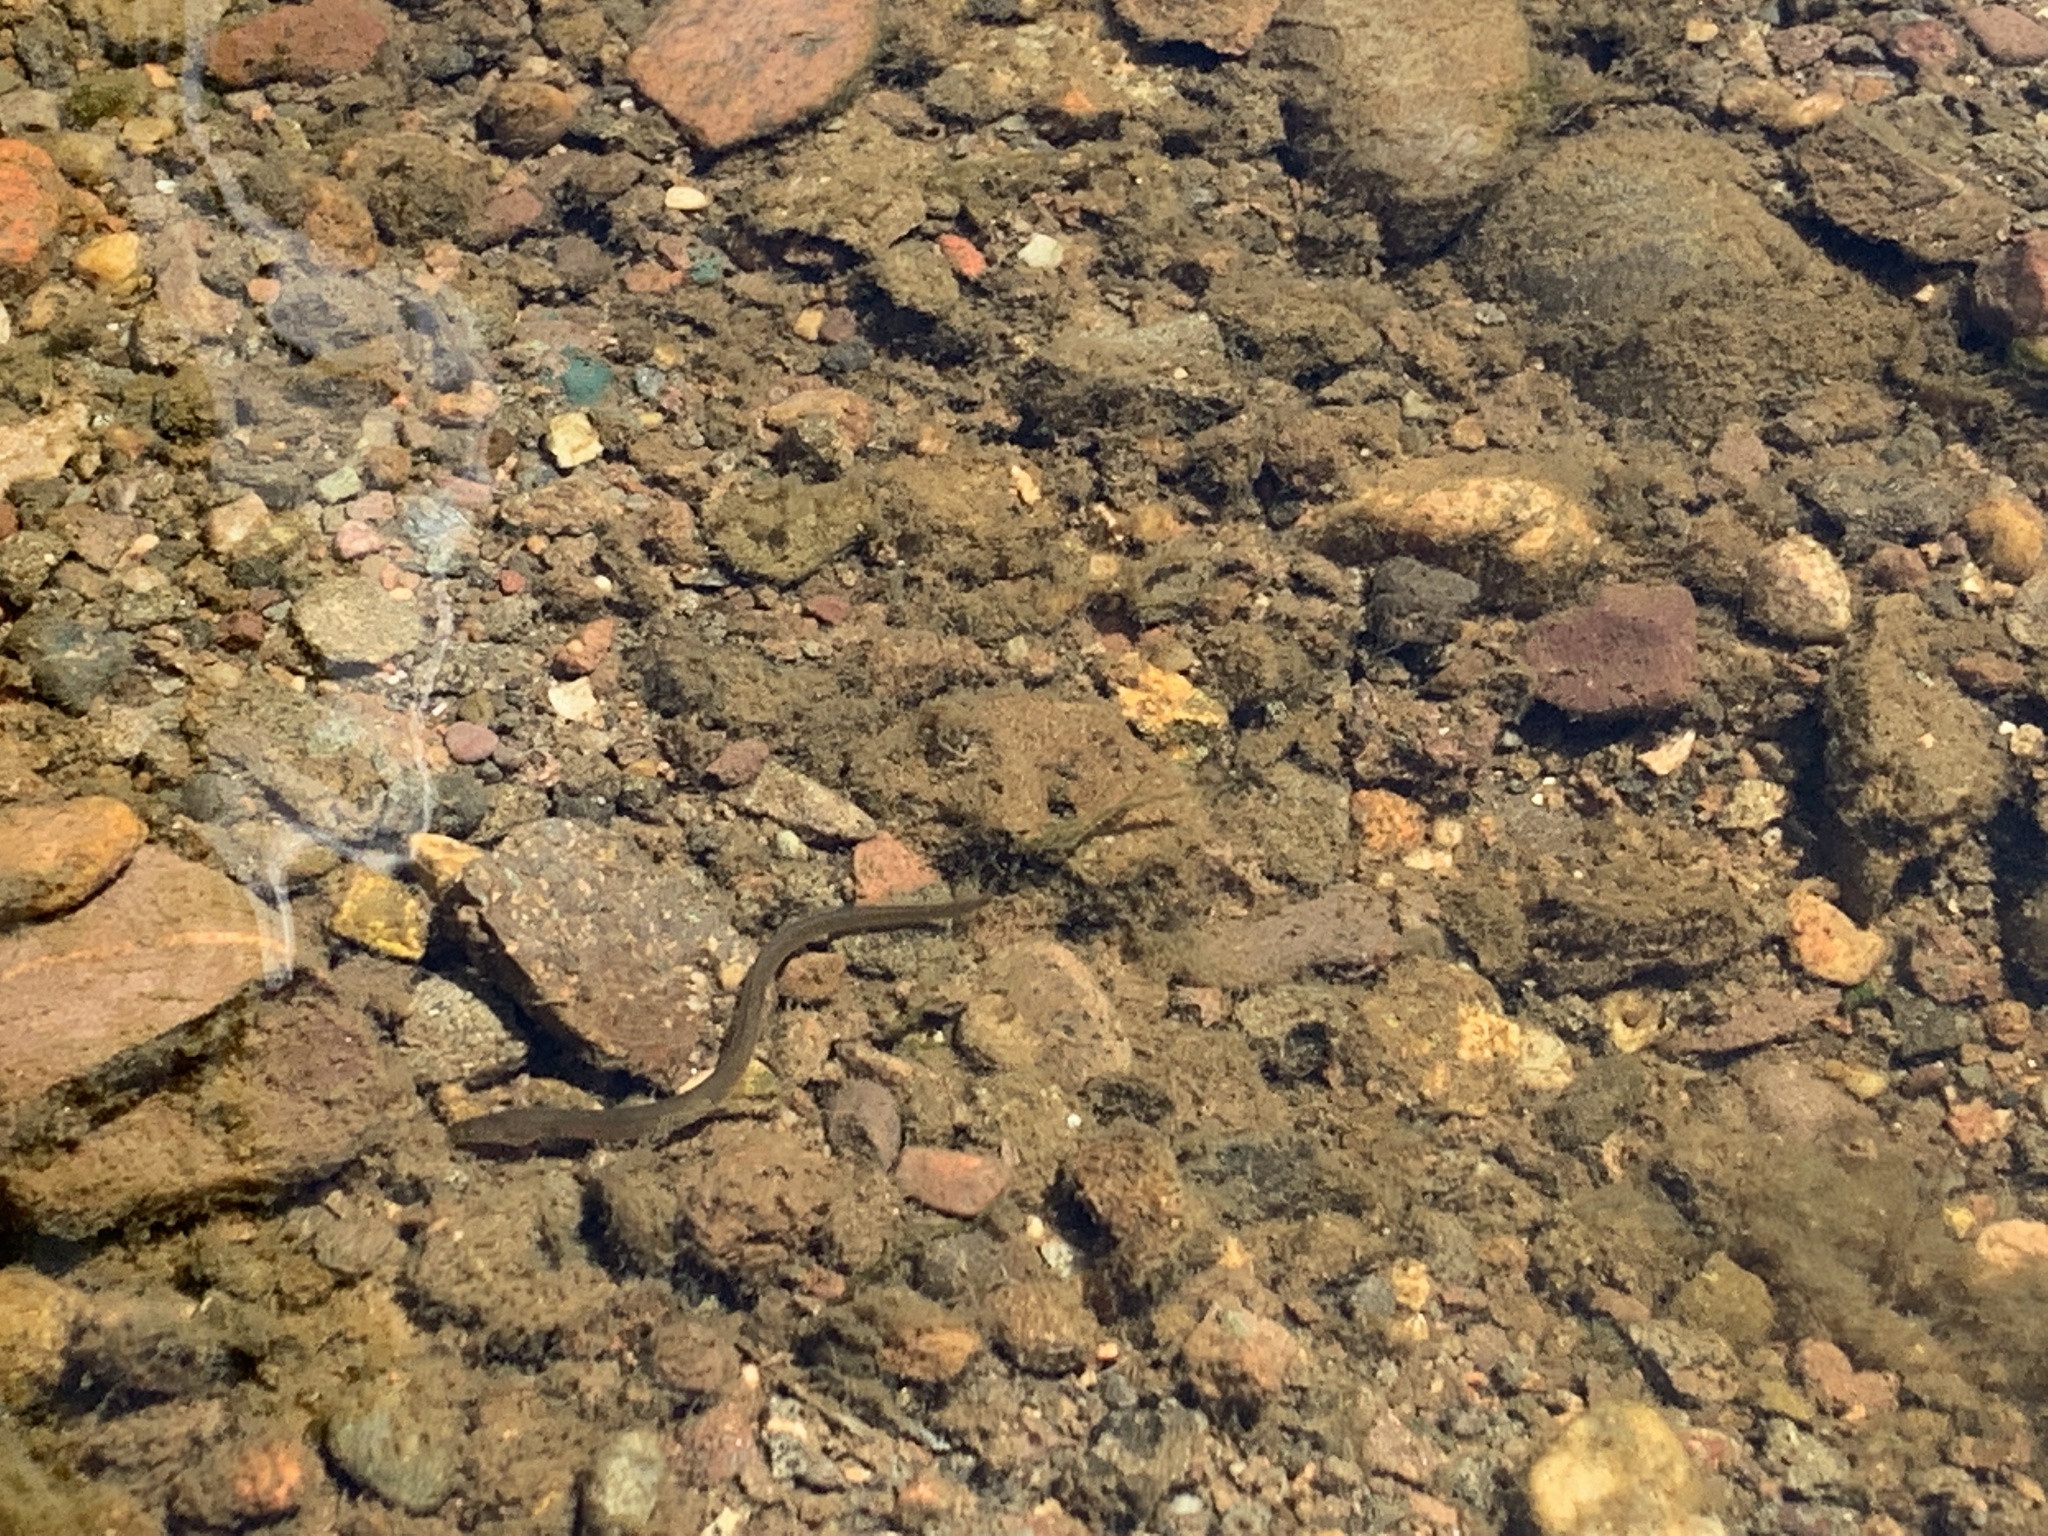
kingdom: Animalia
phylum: Chordata
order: Anguilliformes
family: Anguillidae
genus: Anguilla
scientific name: Anguilla rostrata
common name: American eel
